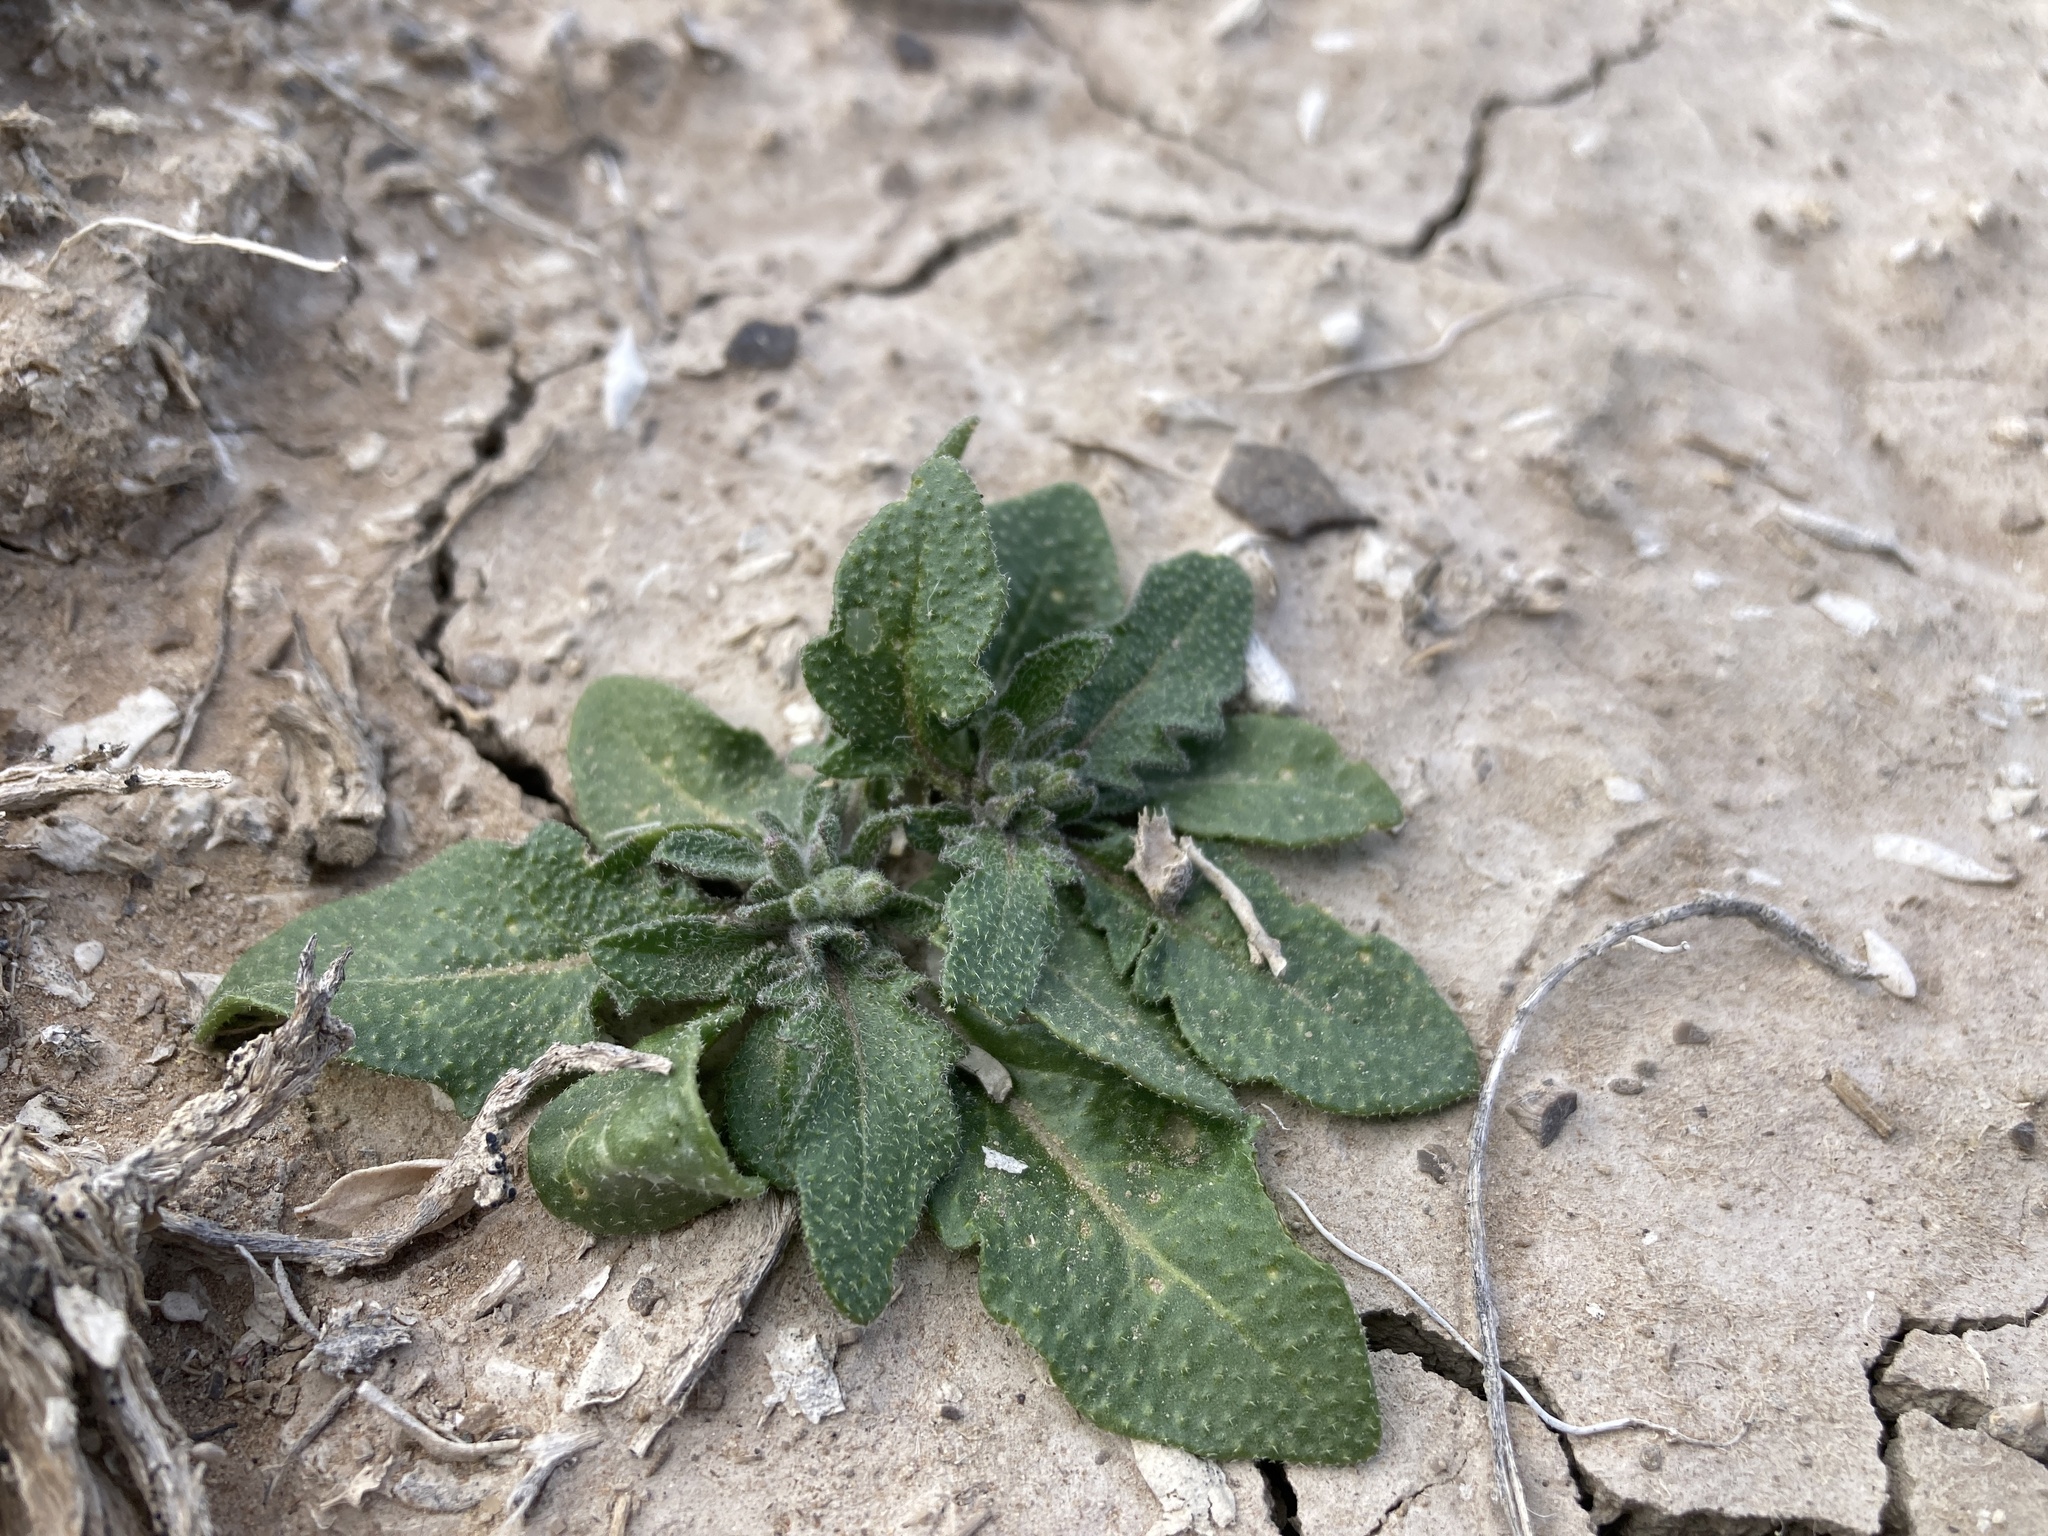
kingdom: Plantae
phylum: Tracheophyta
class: Magnoliopsida
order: Brassicales
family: Brassicaceae
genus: Strigosella
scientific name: Strigosella africana
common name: African mustard
